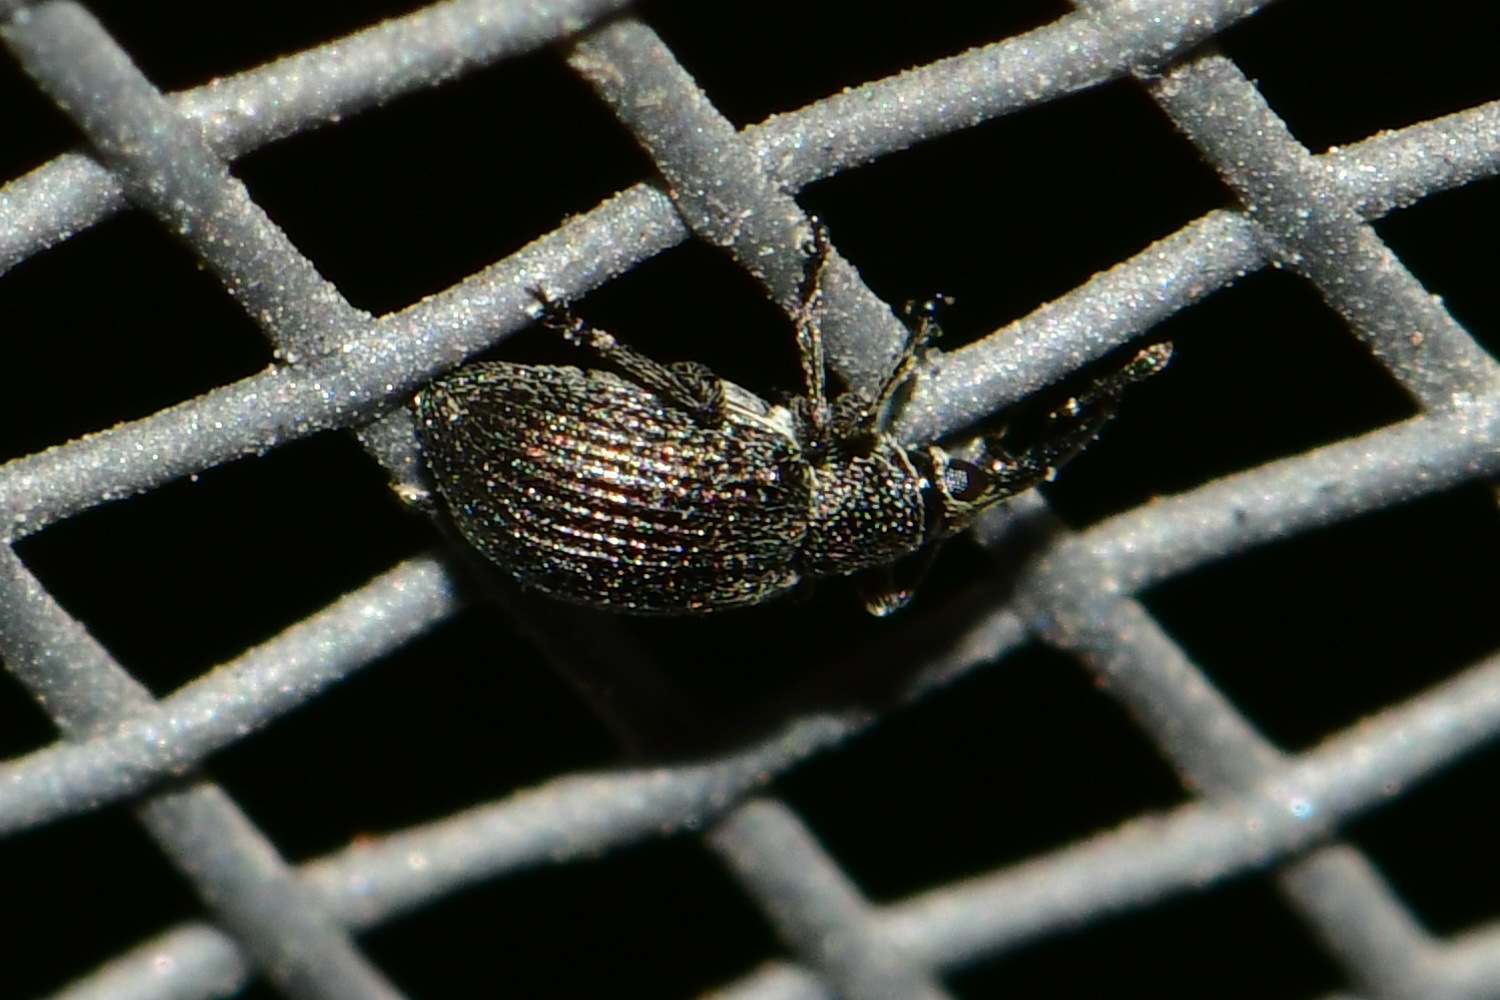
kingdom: Animalia
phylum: Arthropoda
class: Insecta
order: Coleoptera
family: Brentidae
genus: Betulapion
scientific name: Betulapion simile
